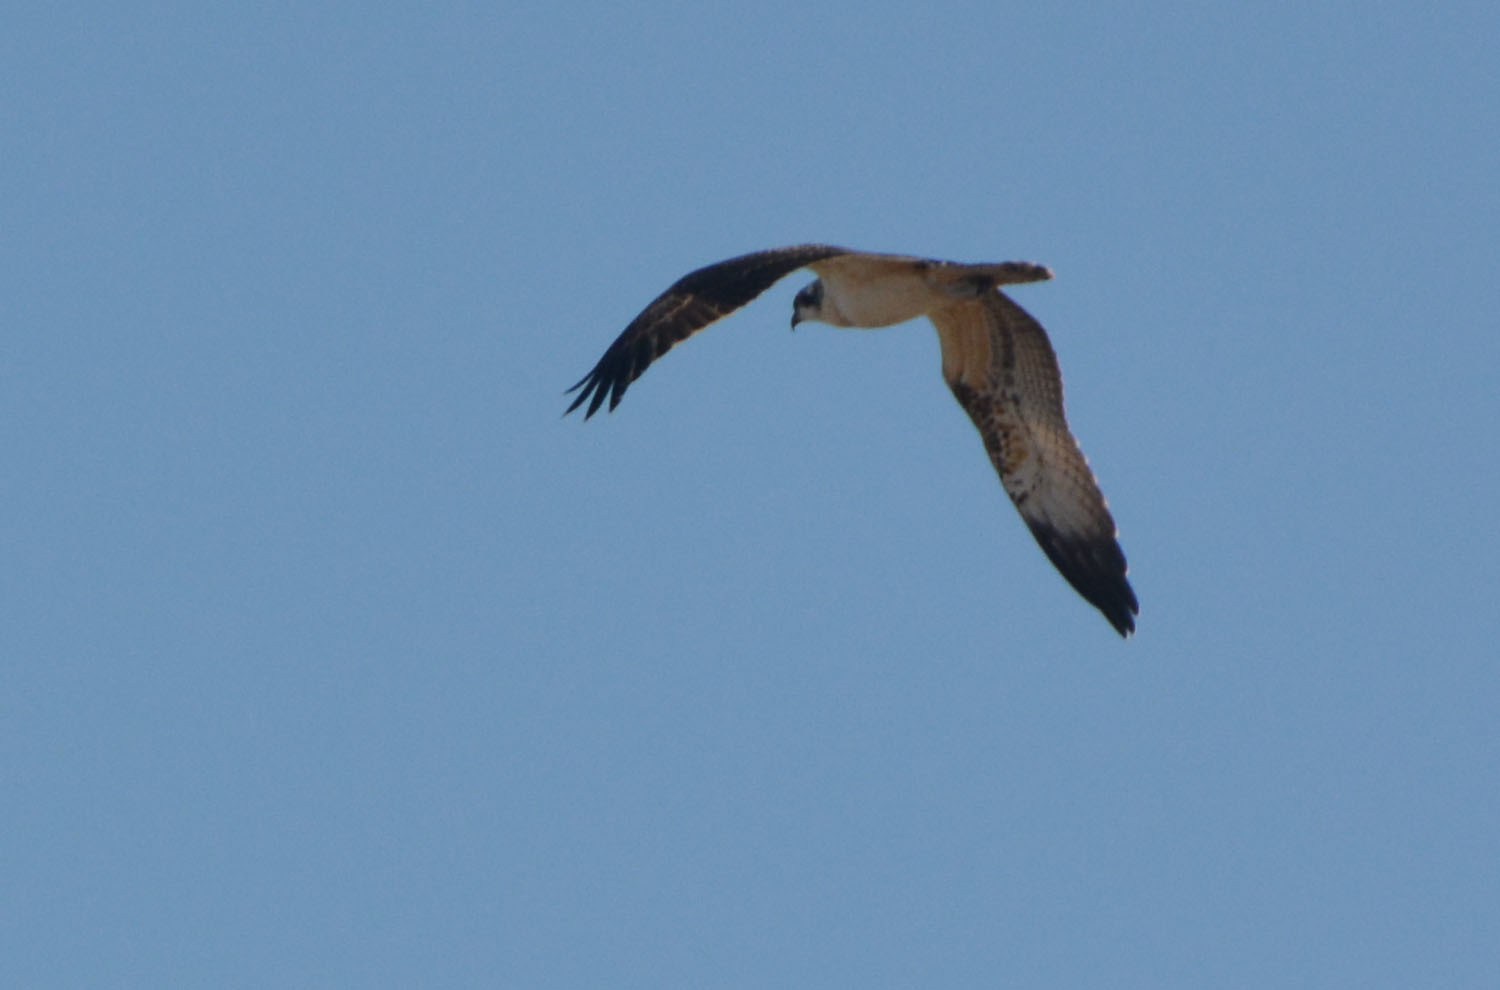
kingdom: Animalia
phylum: Chordata
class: Aves
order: Accipitriformes
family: Pandionidae
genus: Pandion
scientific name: Pandion haliaetus
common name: Osprey
